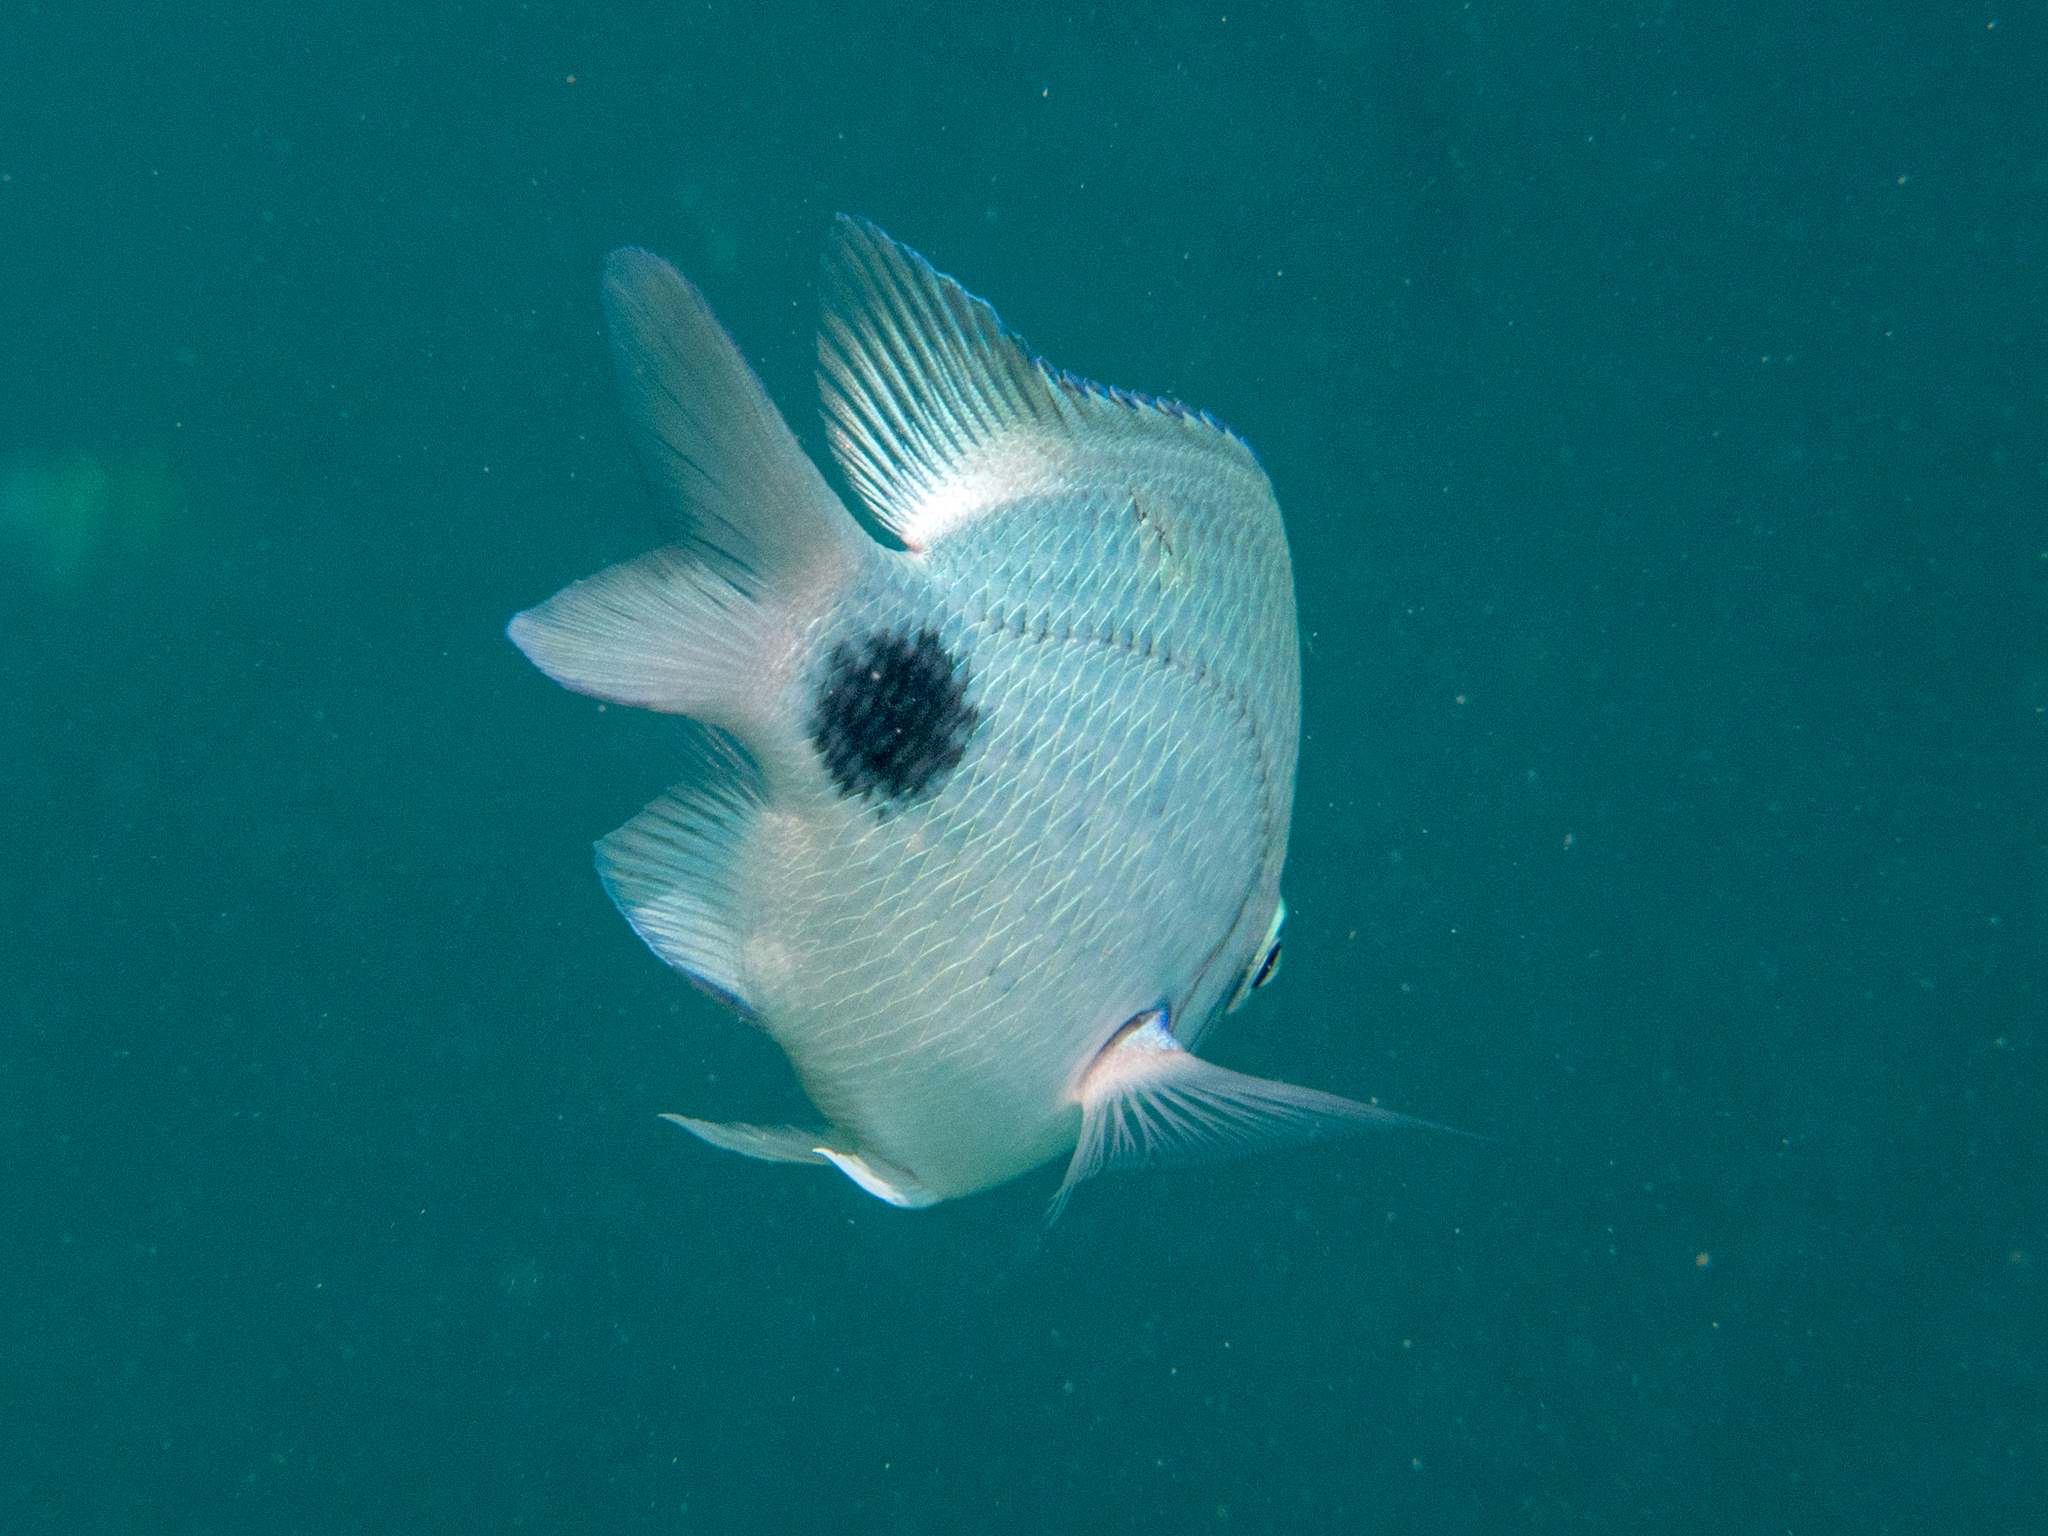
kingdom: Animalia
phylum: Chordata
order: Perciformes
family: Pomacentridae
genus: Abudefduf
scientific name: Abudefduf sparoides
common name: False-eye sergeant
